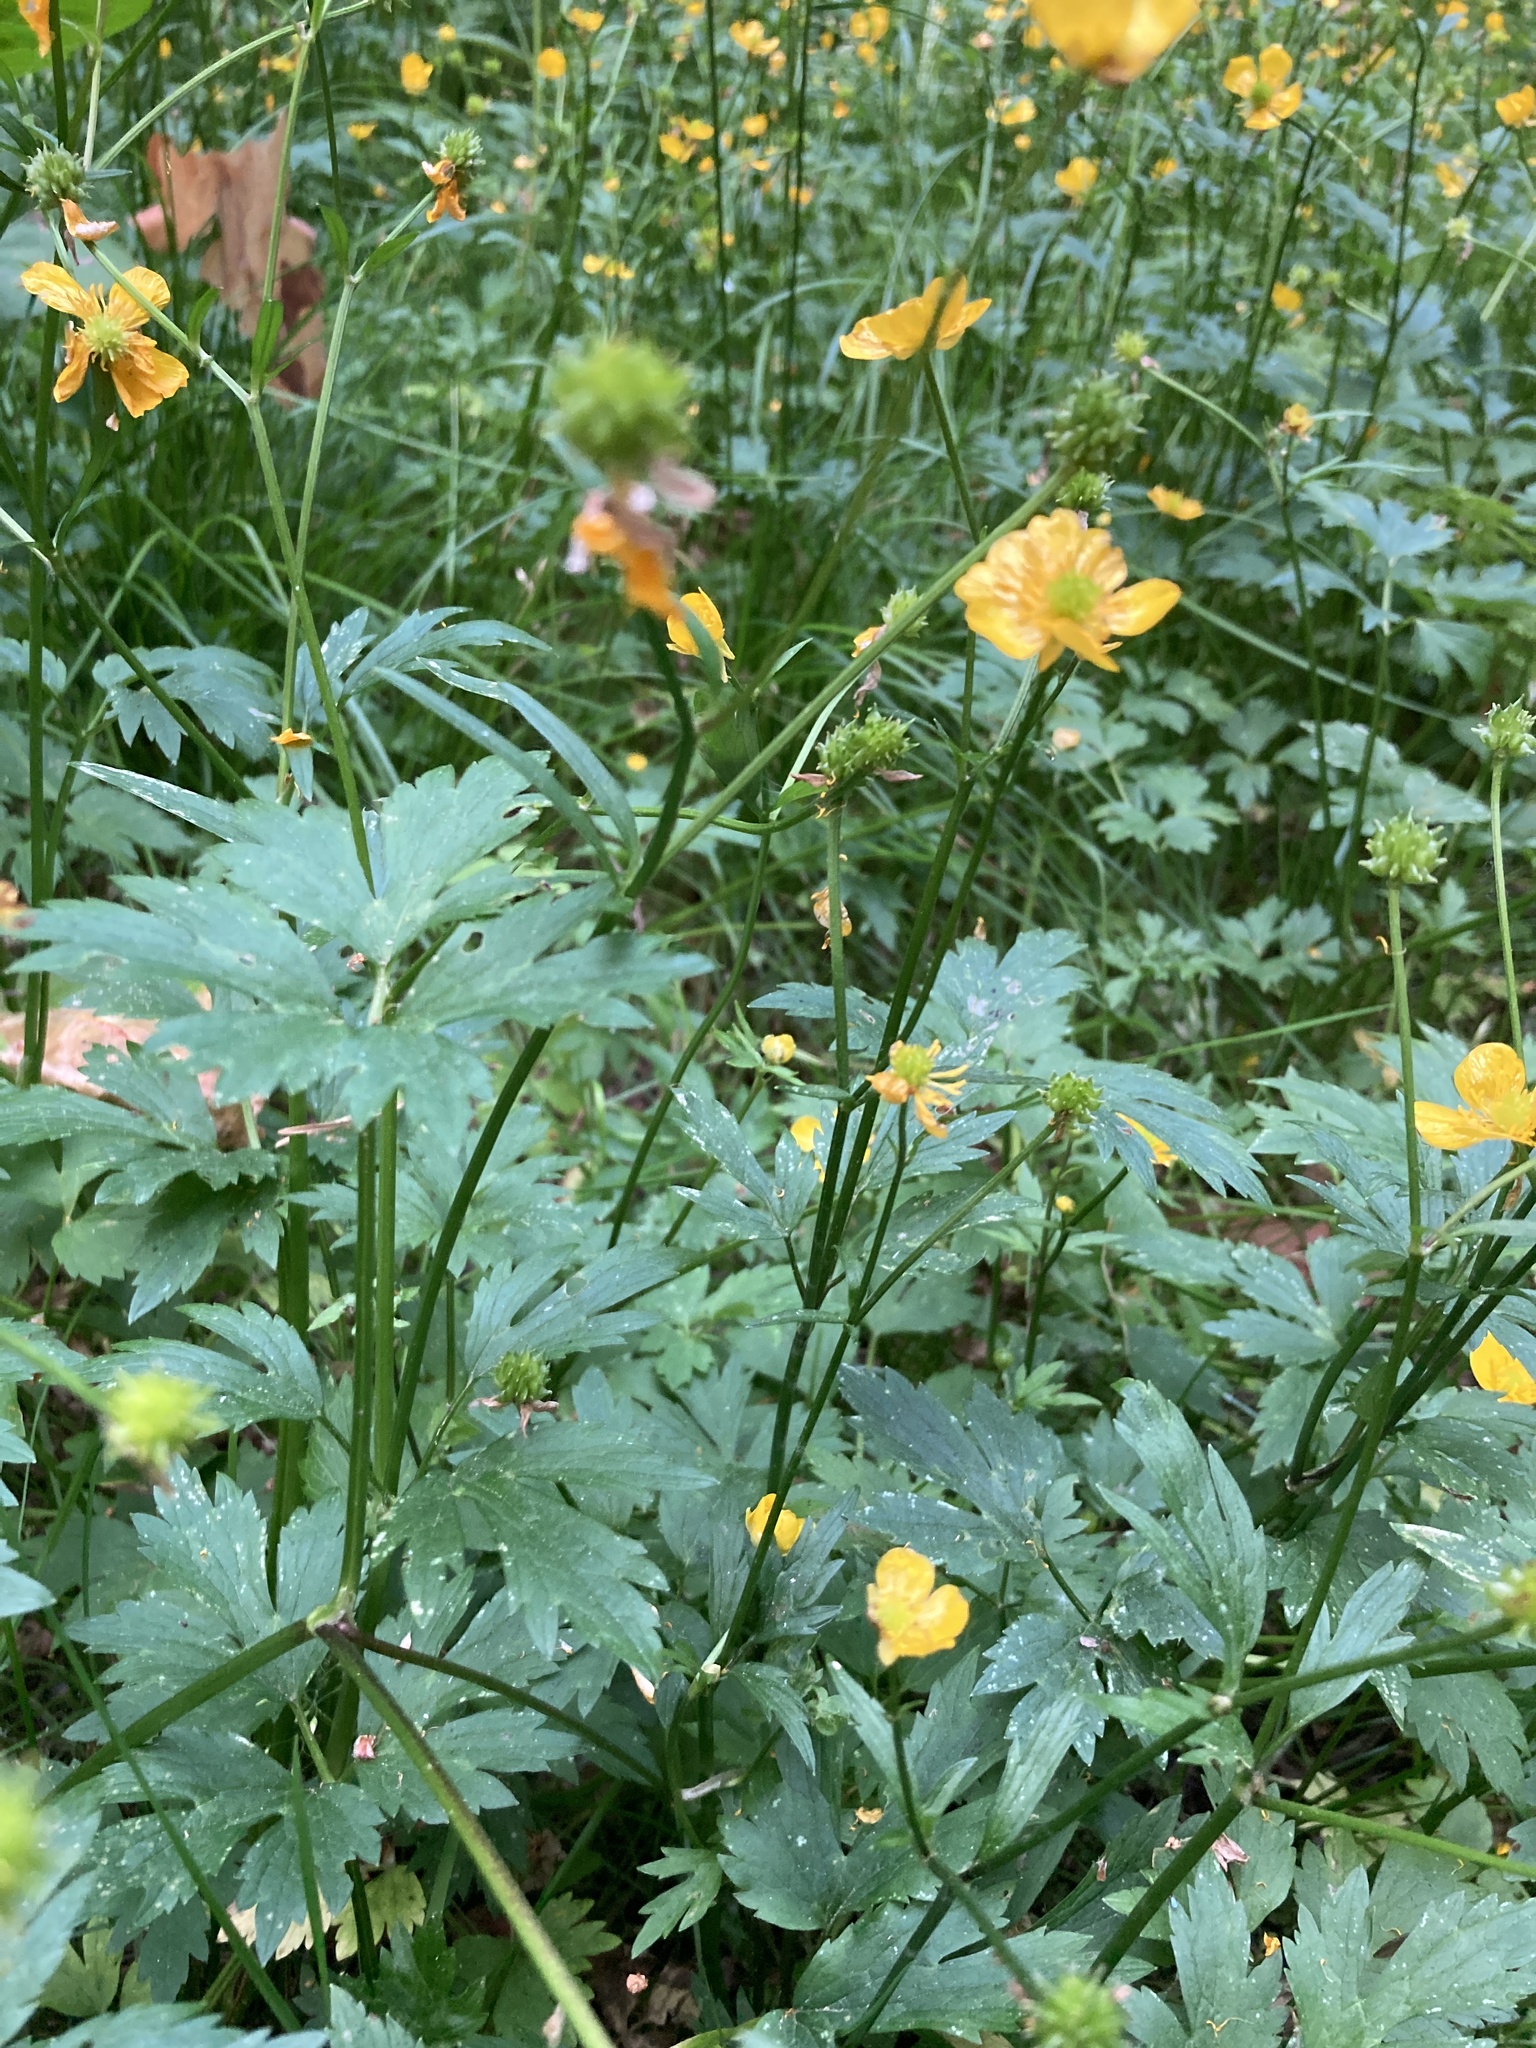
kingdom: Plantae
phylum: Tracheophyta
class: Magnoliopsida
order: Ranunculales
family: Ranunculaceae
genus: Ranunculus
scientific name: Ranunculus repens
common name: Creeping buttercup
